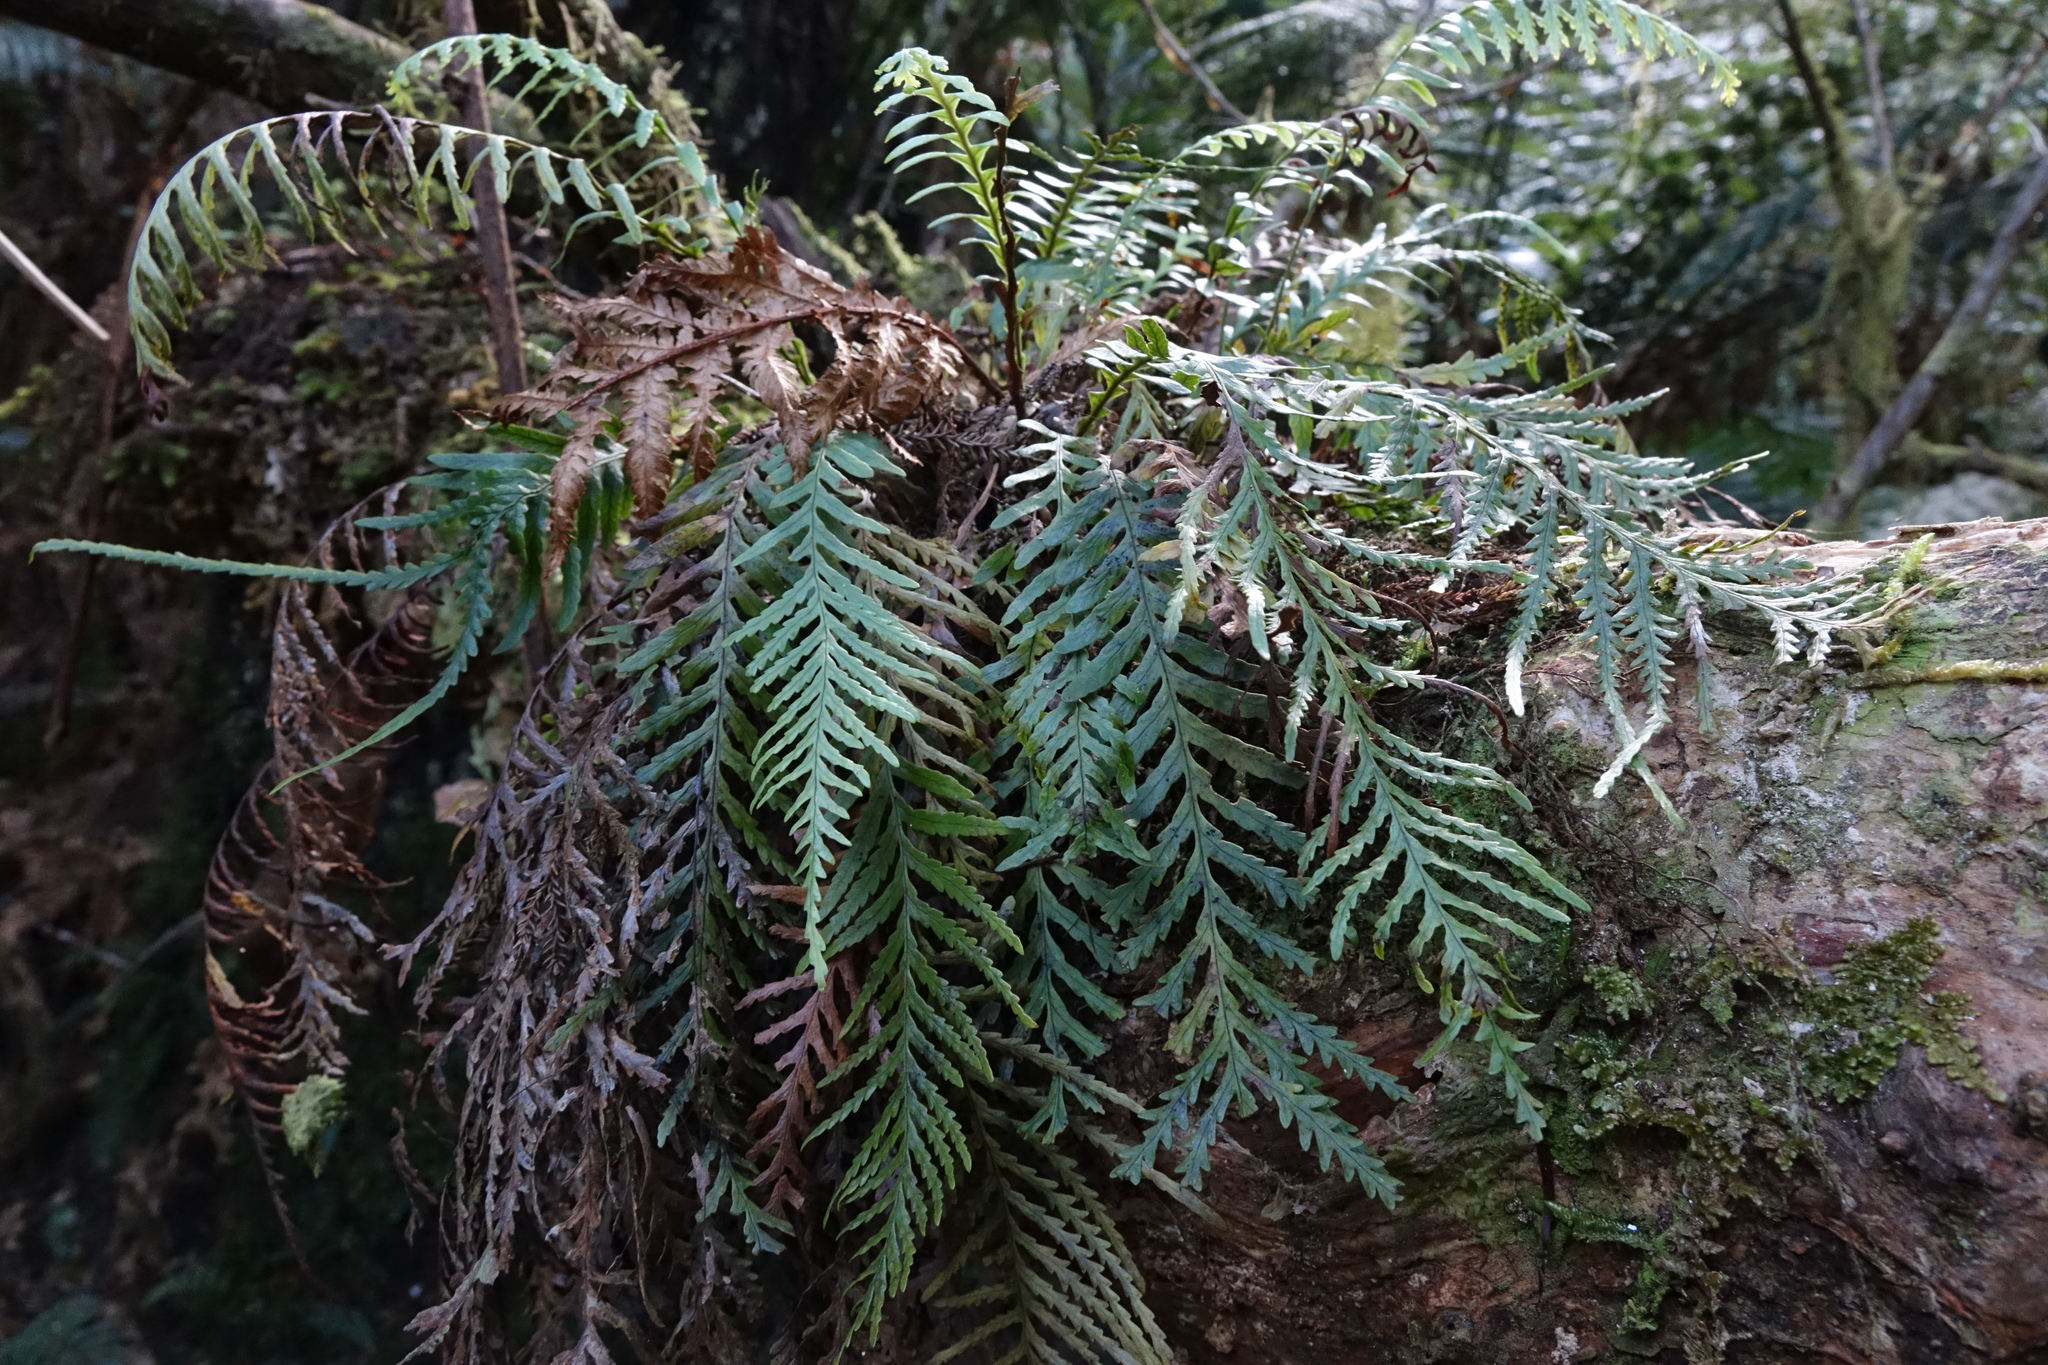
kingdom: Plantae
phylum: Tracheophyta
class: Polypodiopsida
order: Polypodiales
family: Polypodiaceae
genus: Notogrammitis
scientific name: Notogrammitis heterophylla
